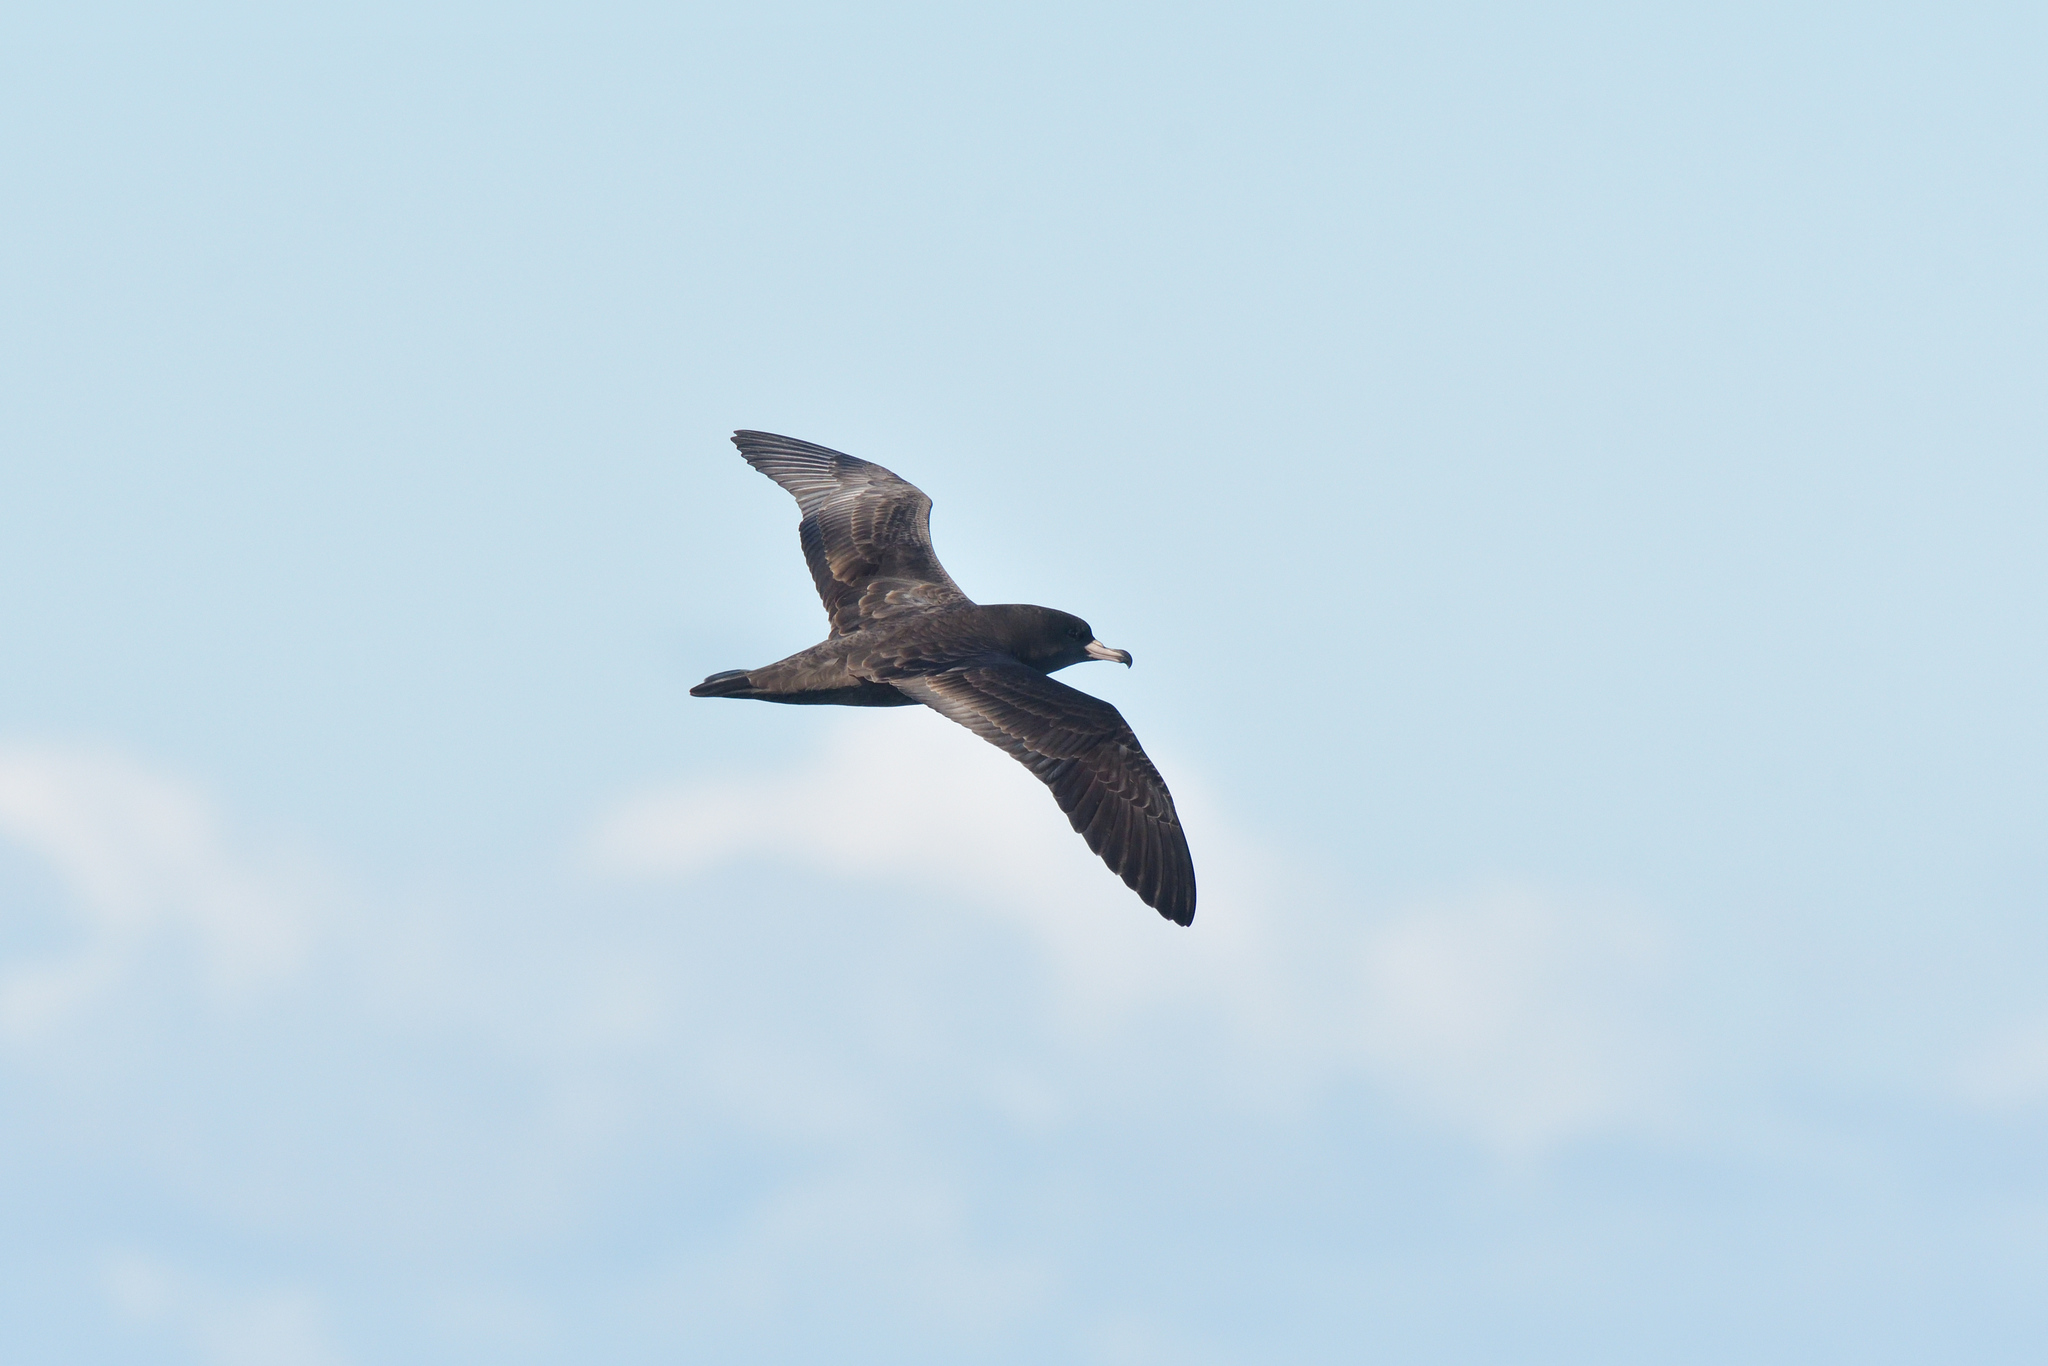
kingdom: Animalia
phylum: Chordata
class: Aves
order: Procellariiformes
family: Procellariidae
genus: Puffinus
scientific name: Puffinus carneipes
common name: Flesh-footed shearwater
